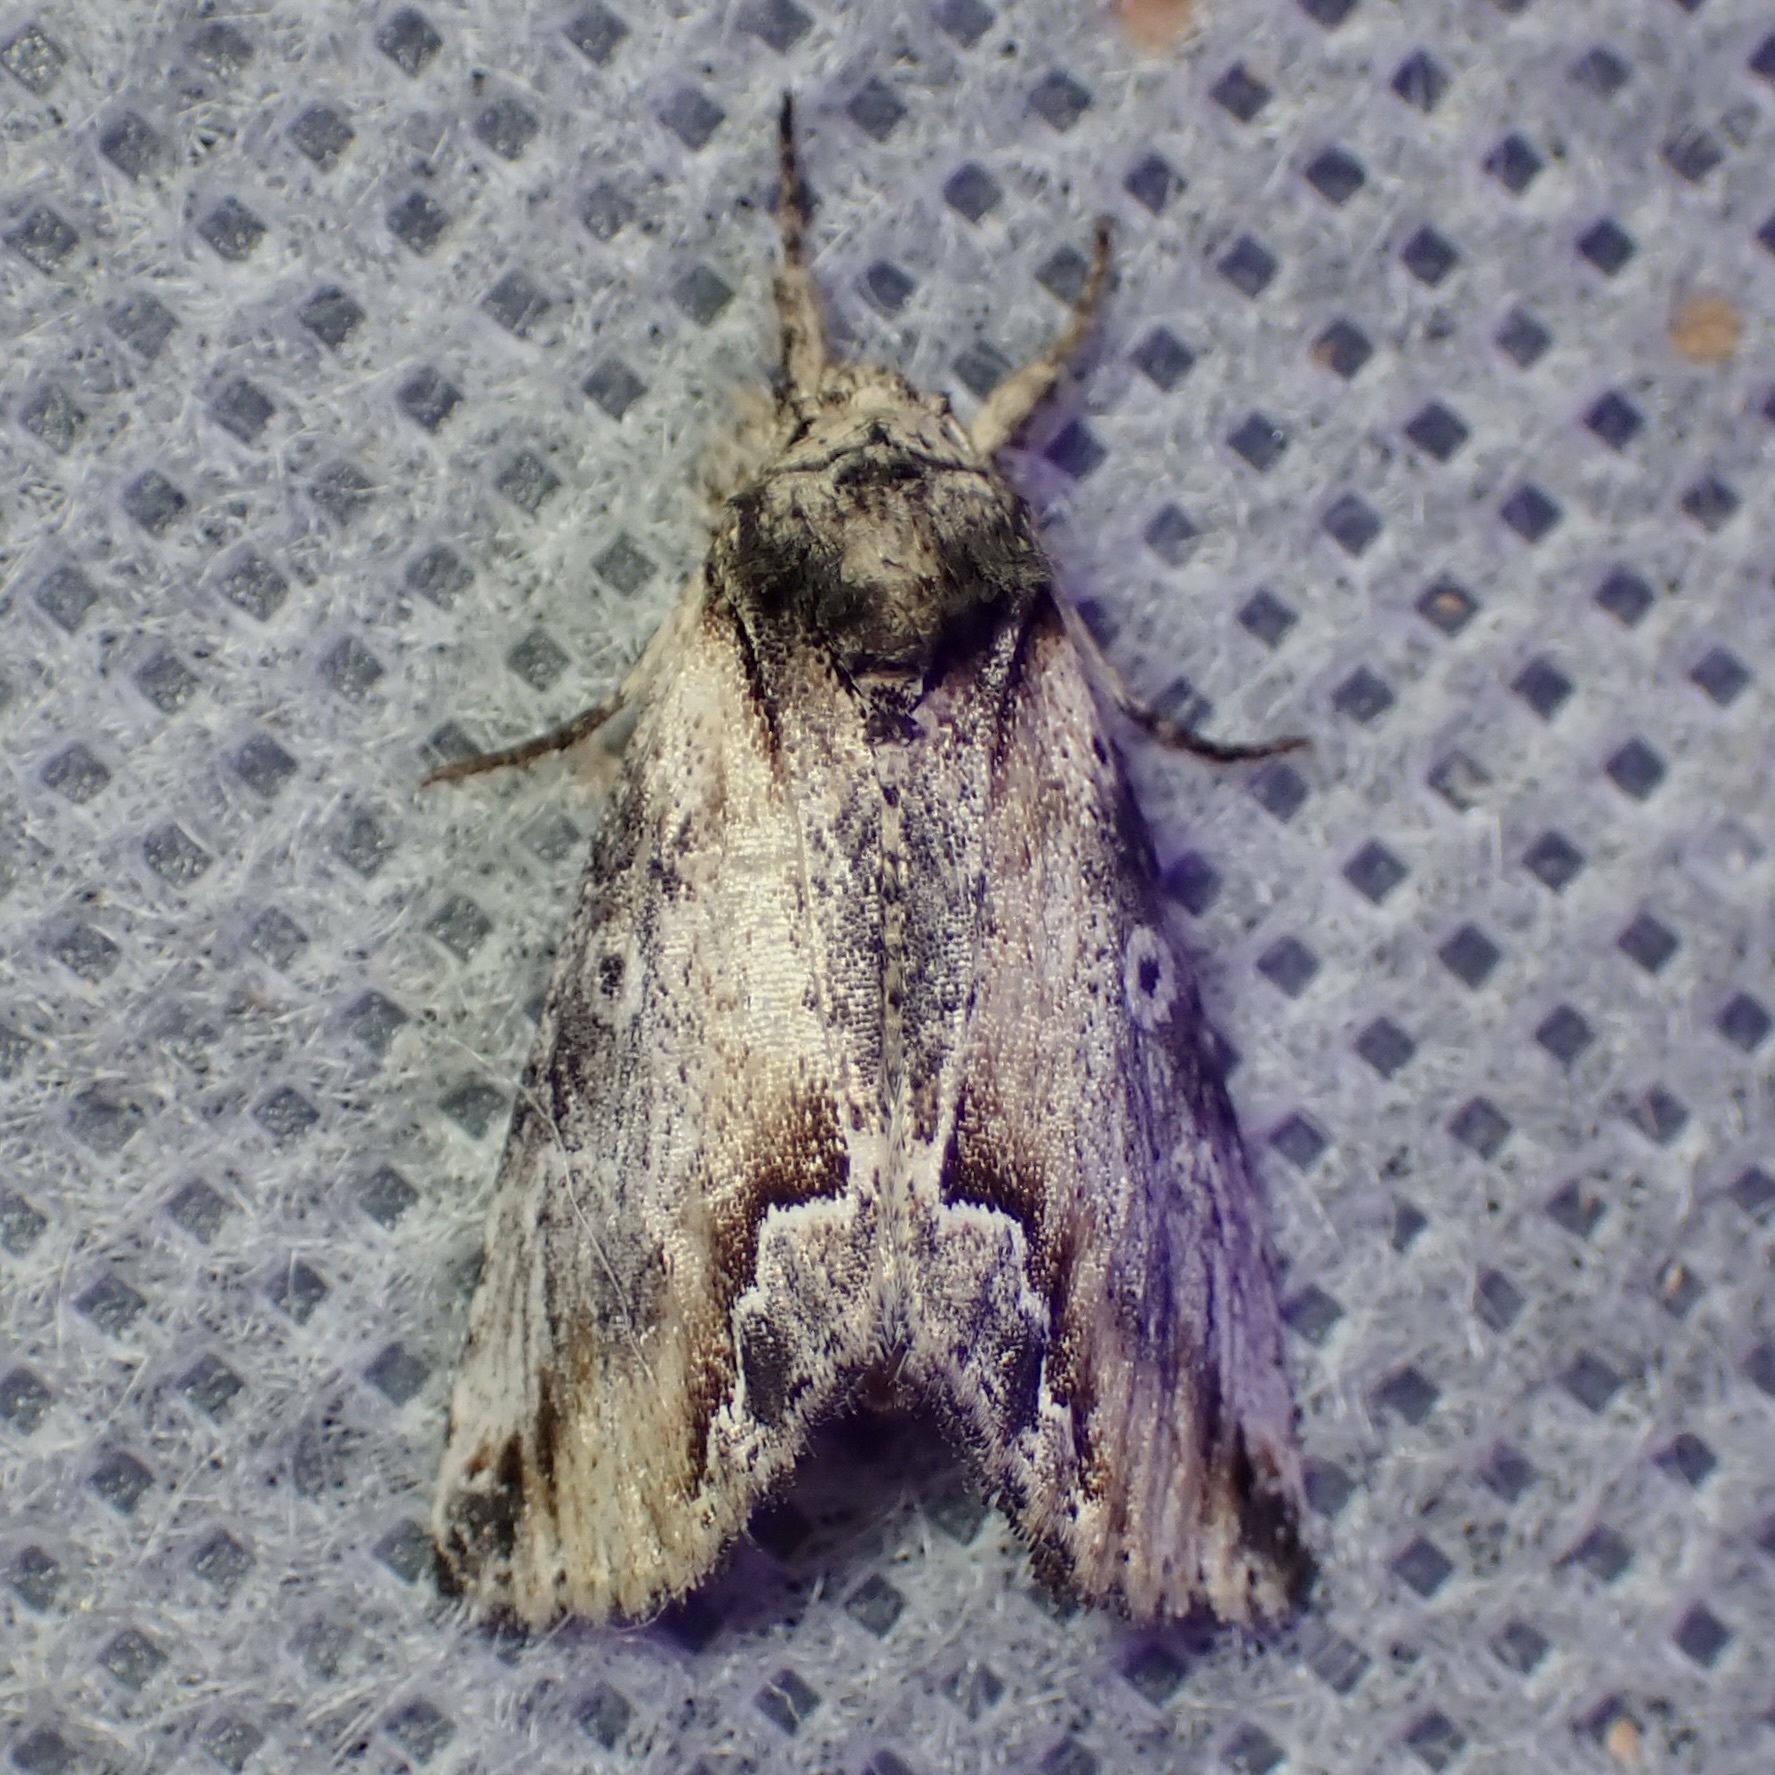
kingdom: Animalia
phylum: Arthropoda
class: Insecta
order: Lepidoptera
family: Noctuidae
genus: Prothrinax
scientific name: Prothrinax luteomedia
